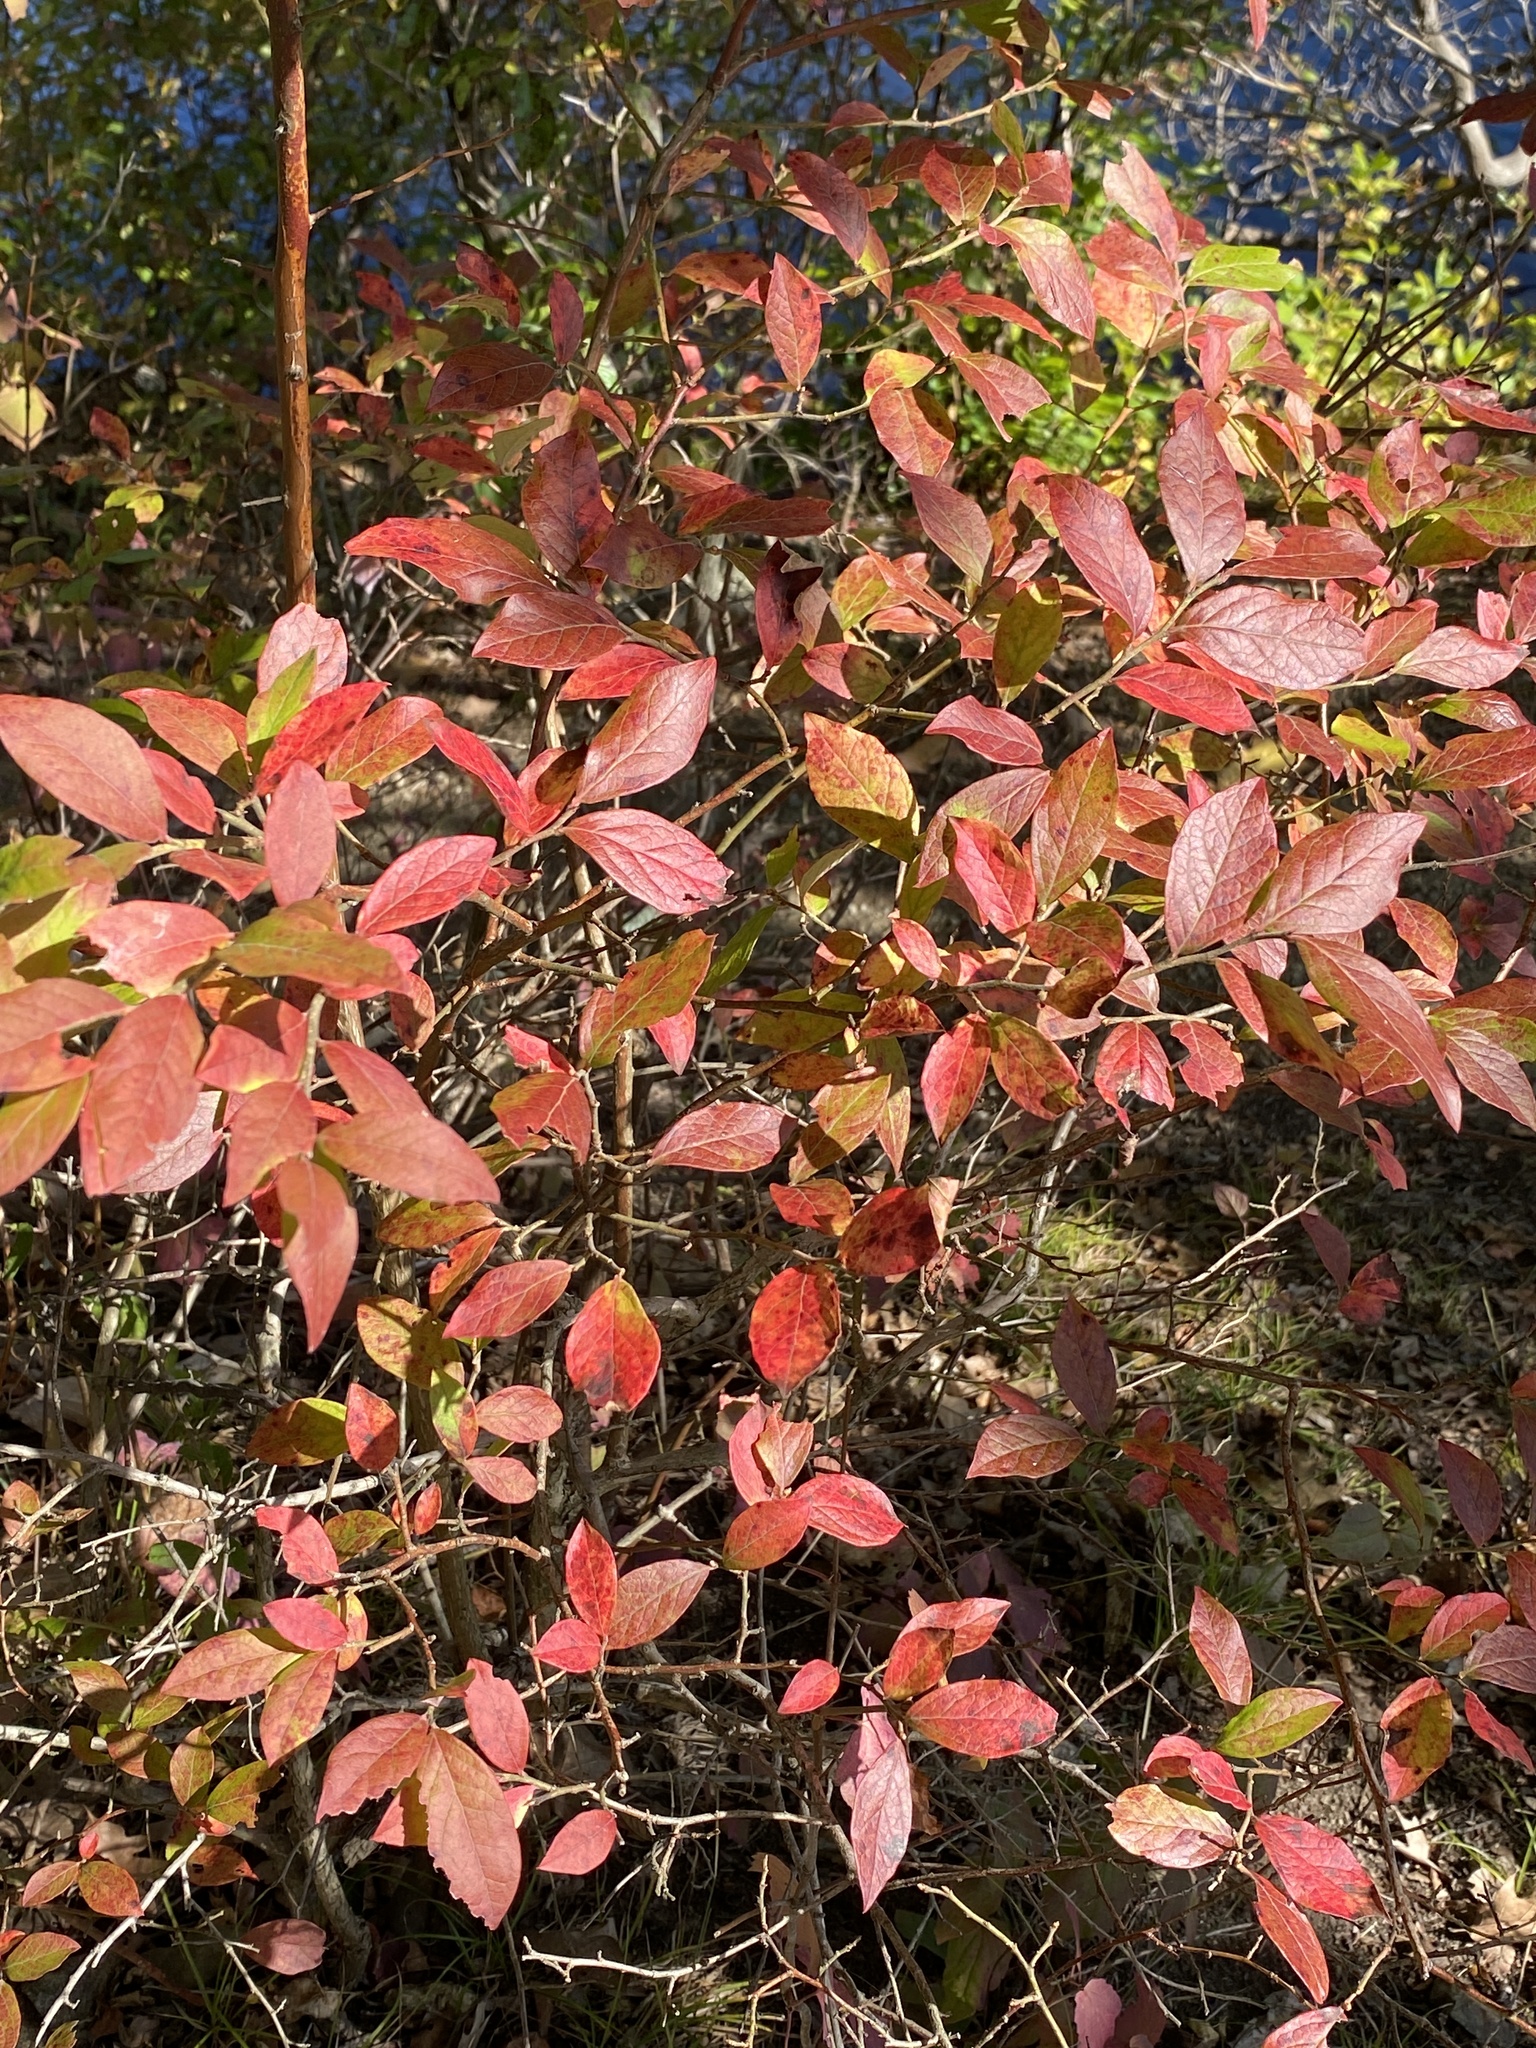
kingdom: Plantae
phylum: Tracheophyta
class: Magnoliopsida
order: Ericales
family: Ericaceae
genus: Vaccinium
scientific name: Vaccinium corymbosum
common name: Blueberry
